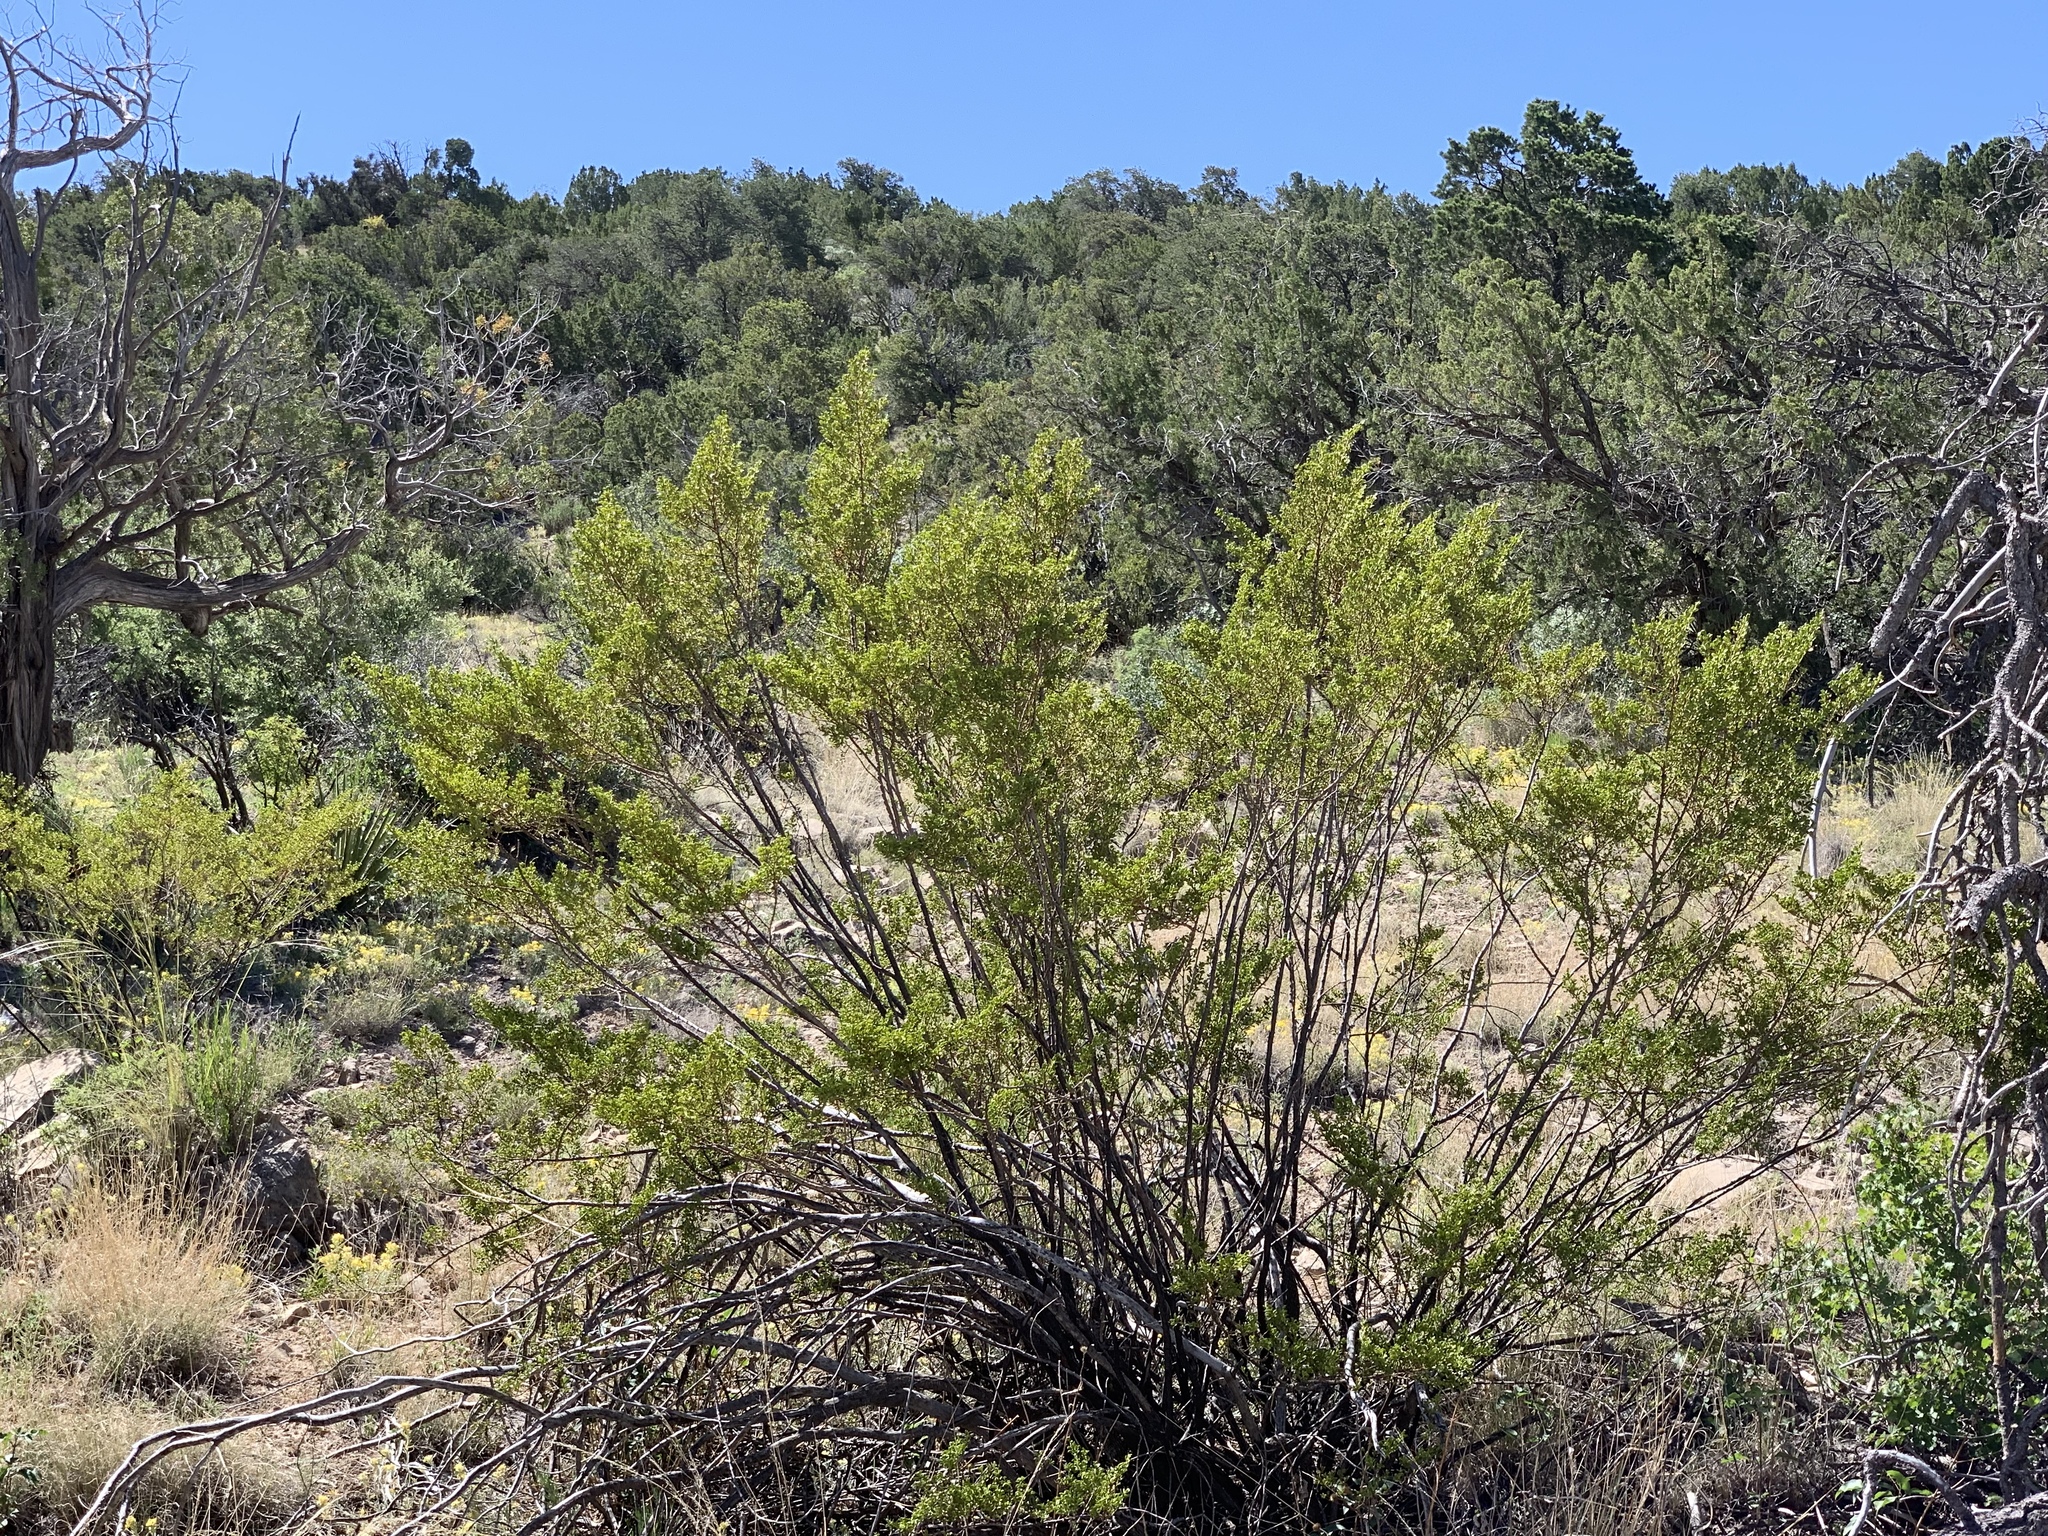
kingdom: Plantae
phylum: Tracheophyta
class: Magnoliopsida
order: Zygophyllales
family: Zygophyllaceae
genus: Larrea
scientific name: Larrea tridentata
